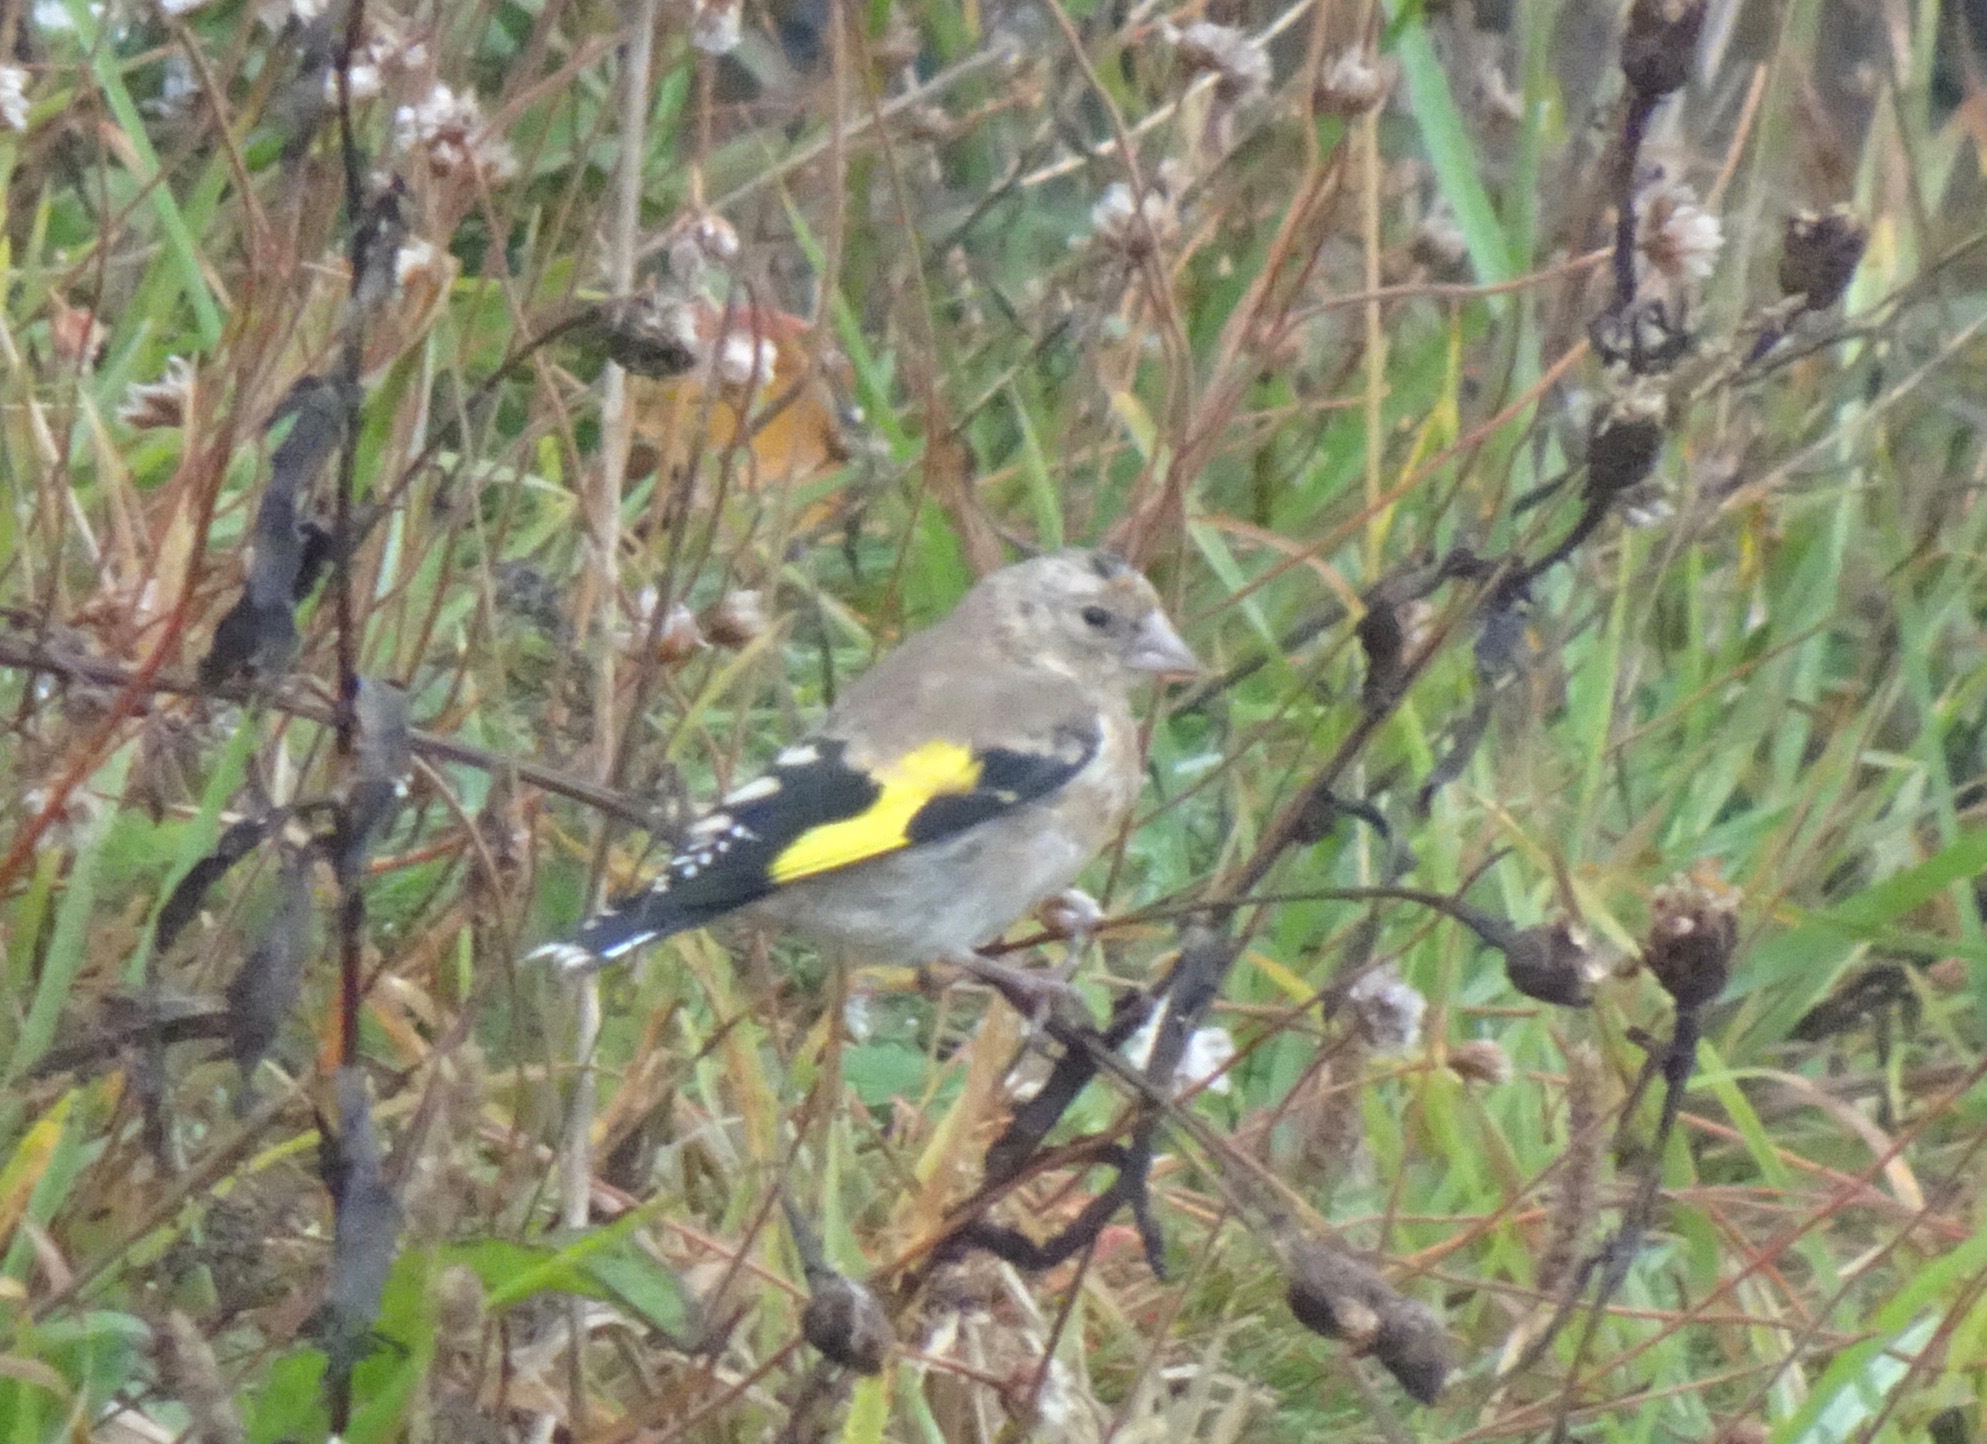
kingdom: Animalia
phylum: Chordata
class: Aves
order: Passeriformes
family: Fringillidae
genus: Carduelis
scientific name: Carduelis carduelis
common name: European goldfinch
